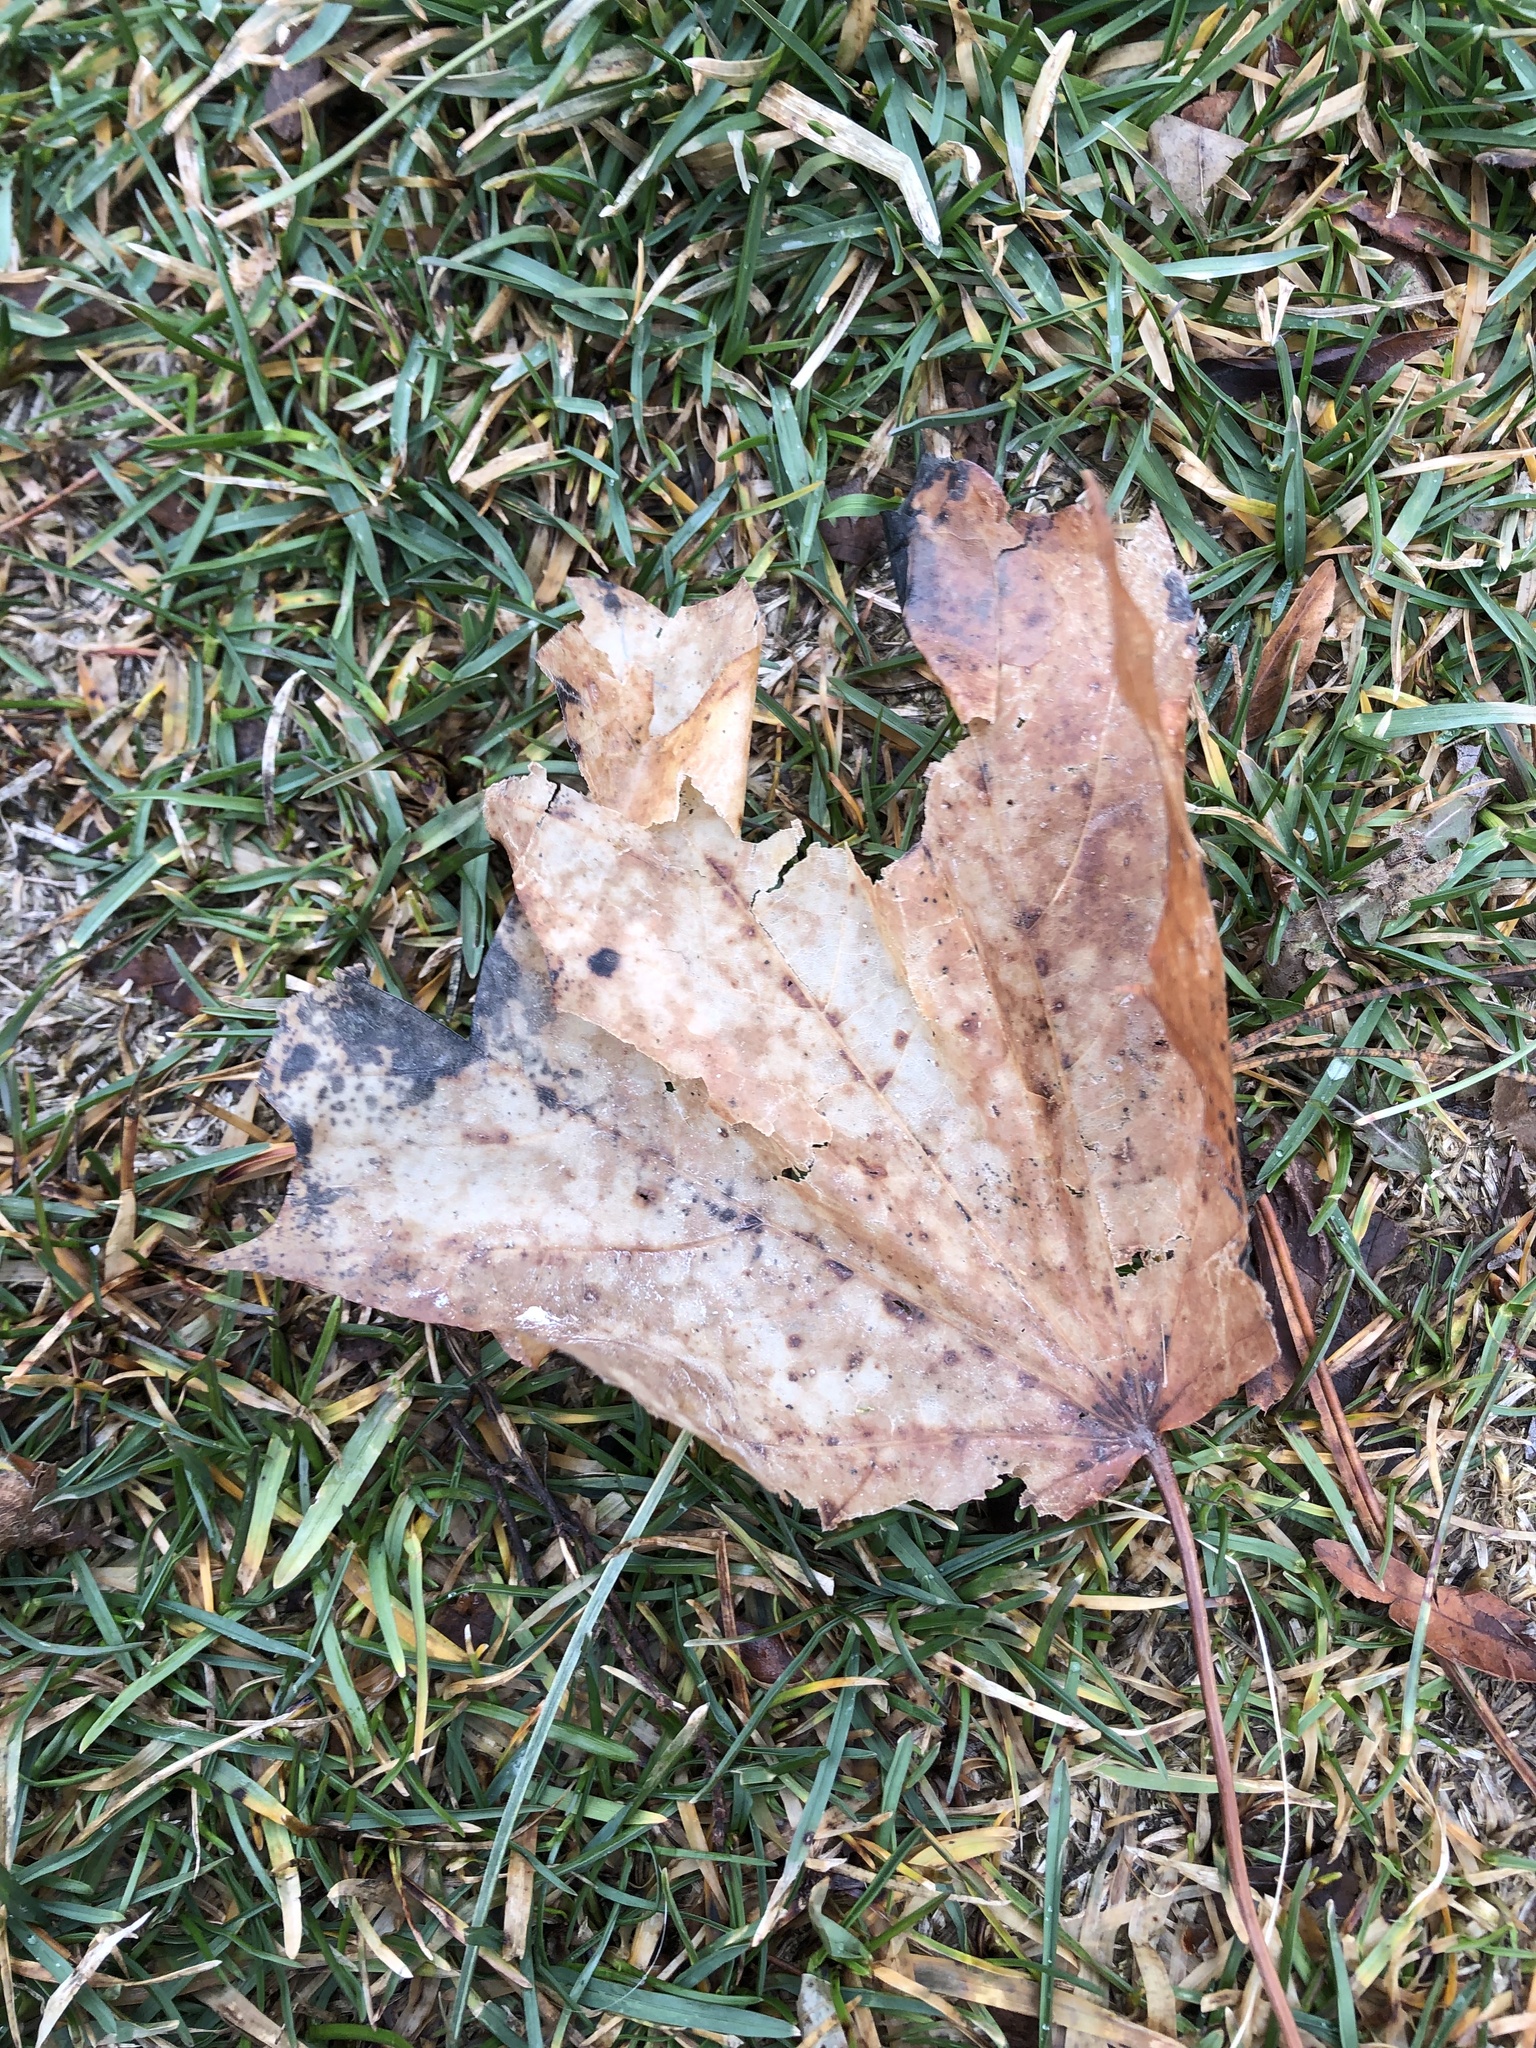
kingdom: Plantae
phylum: Tracheophyta
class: Magnoliopsida
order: Sapindales
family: Sapindaceae
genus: Acer
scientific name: Acer platanoides
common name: Norway maple
